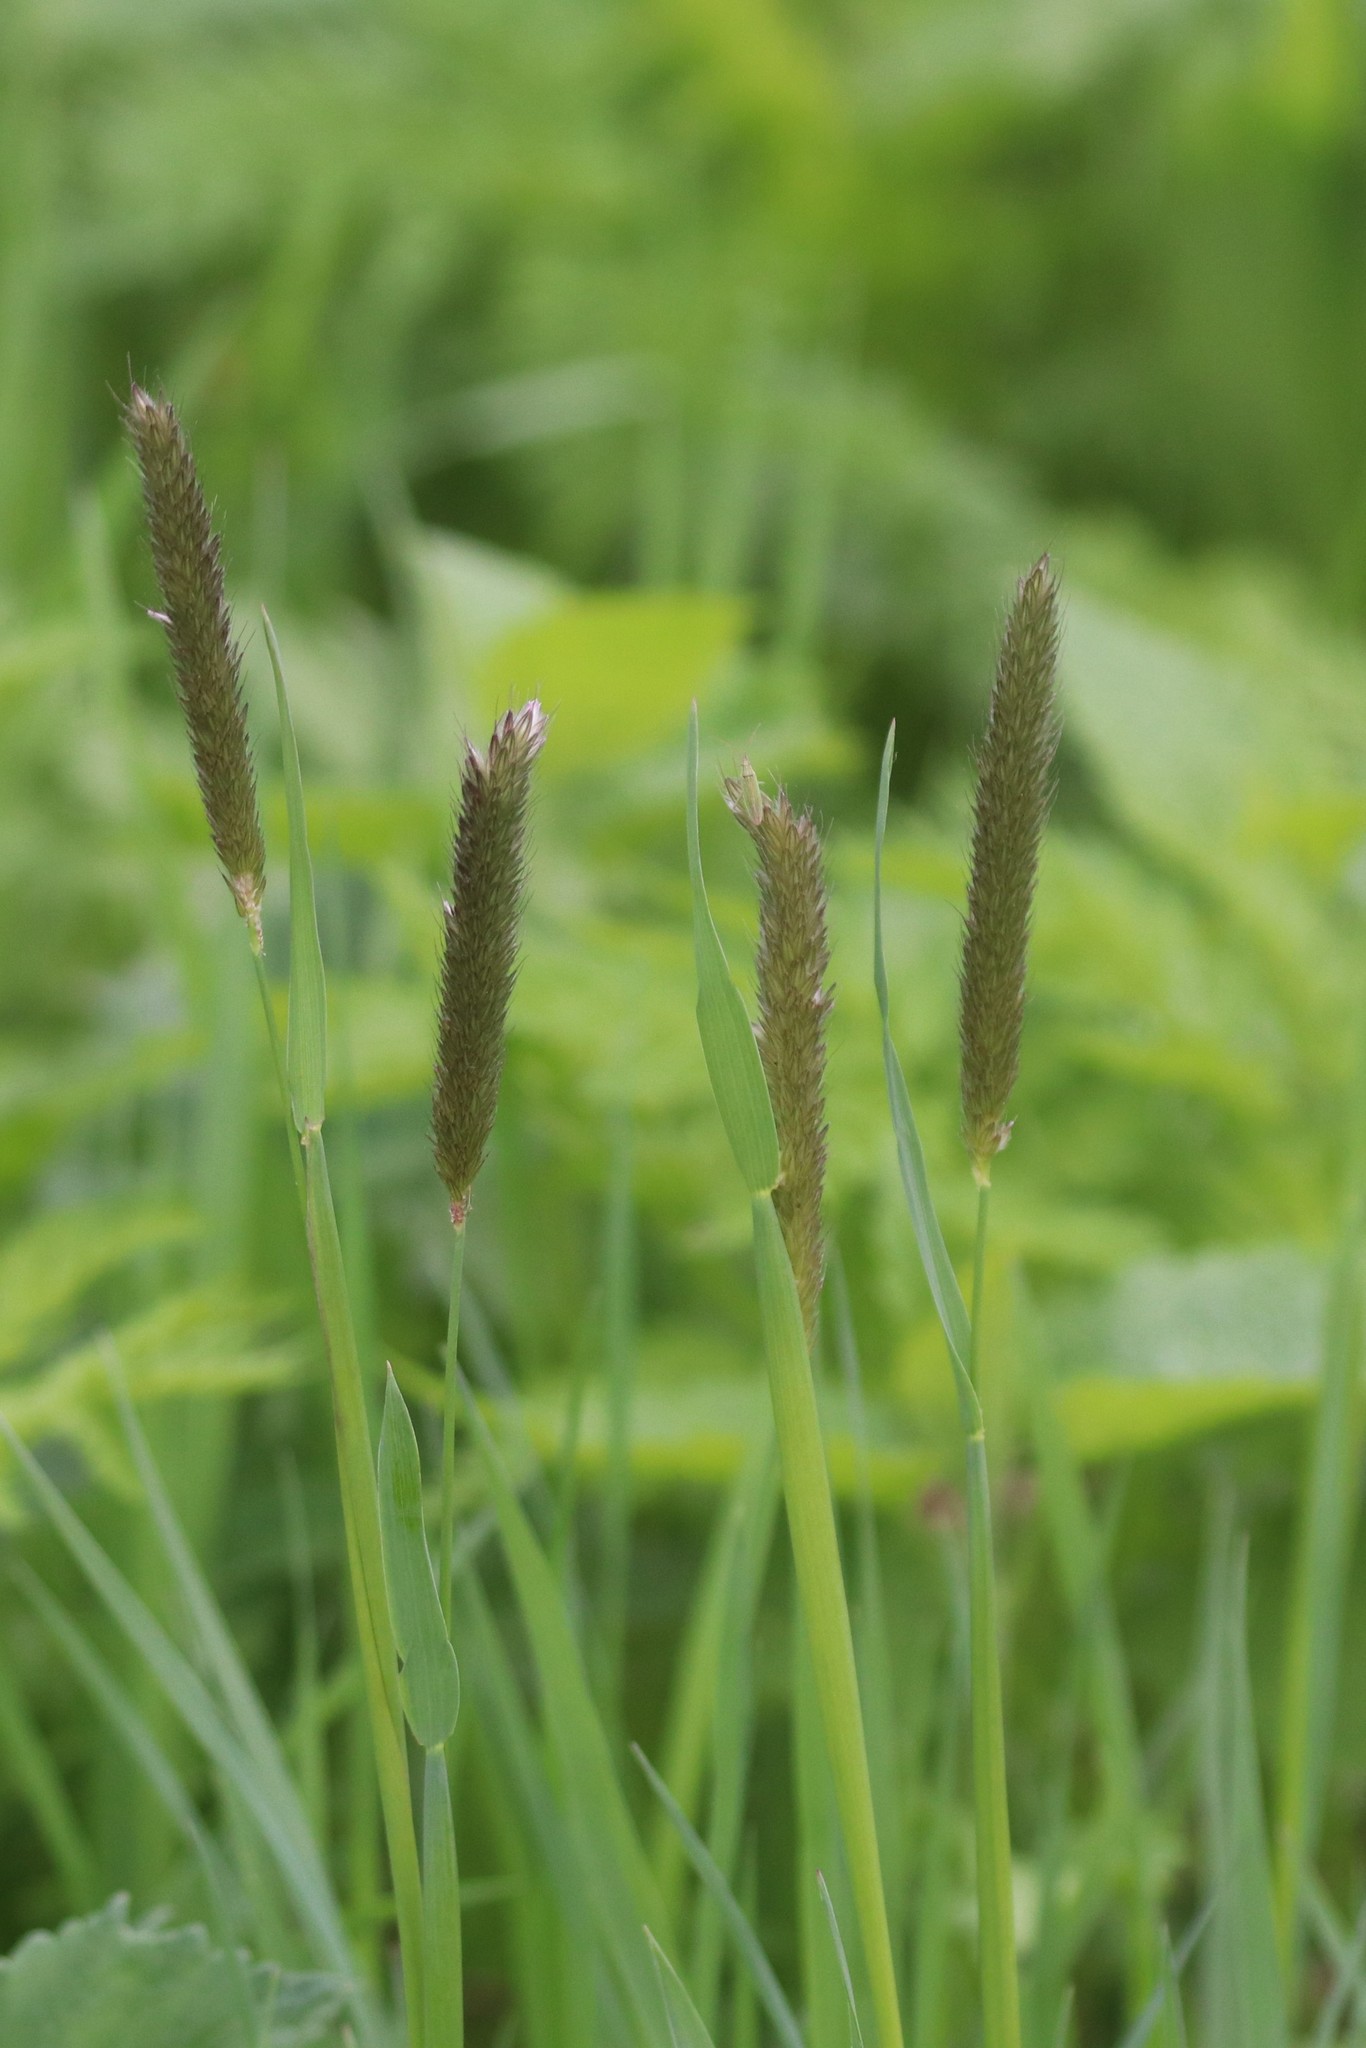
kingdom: Plantae
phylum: Tracheophyta
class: Liliopsida
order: Poales
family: Poaceae
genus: Alopecurus
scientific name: Alopecurus pratensis
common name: Meadow foxtail
